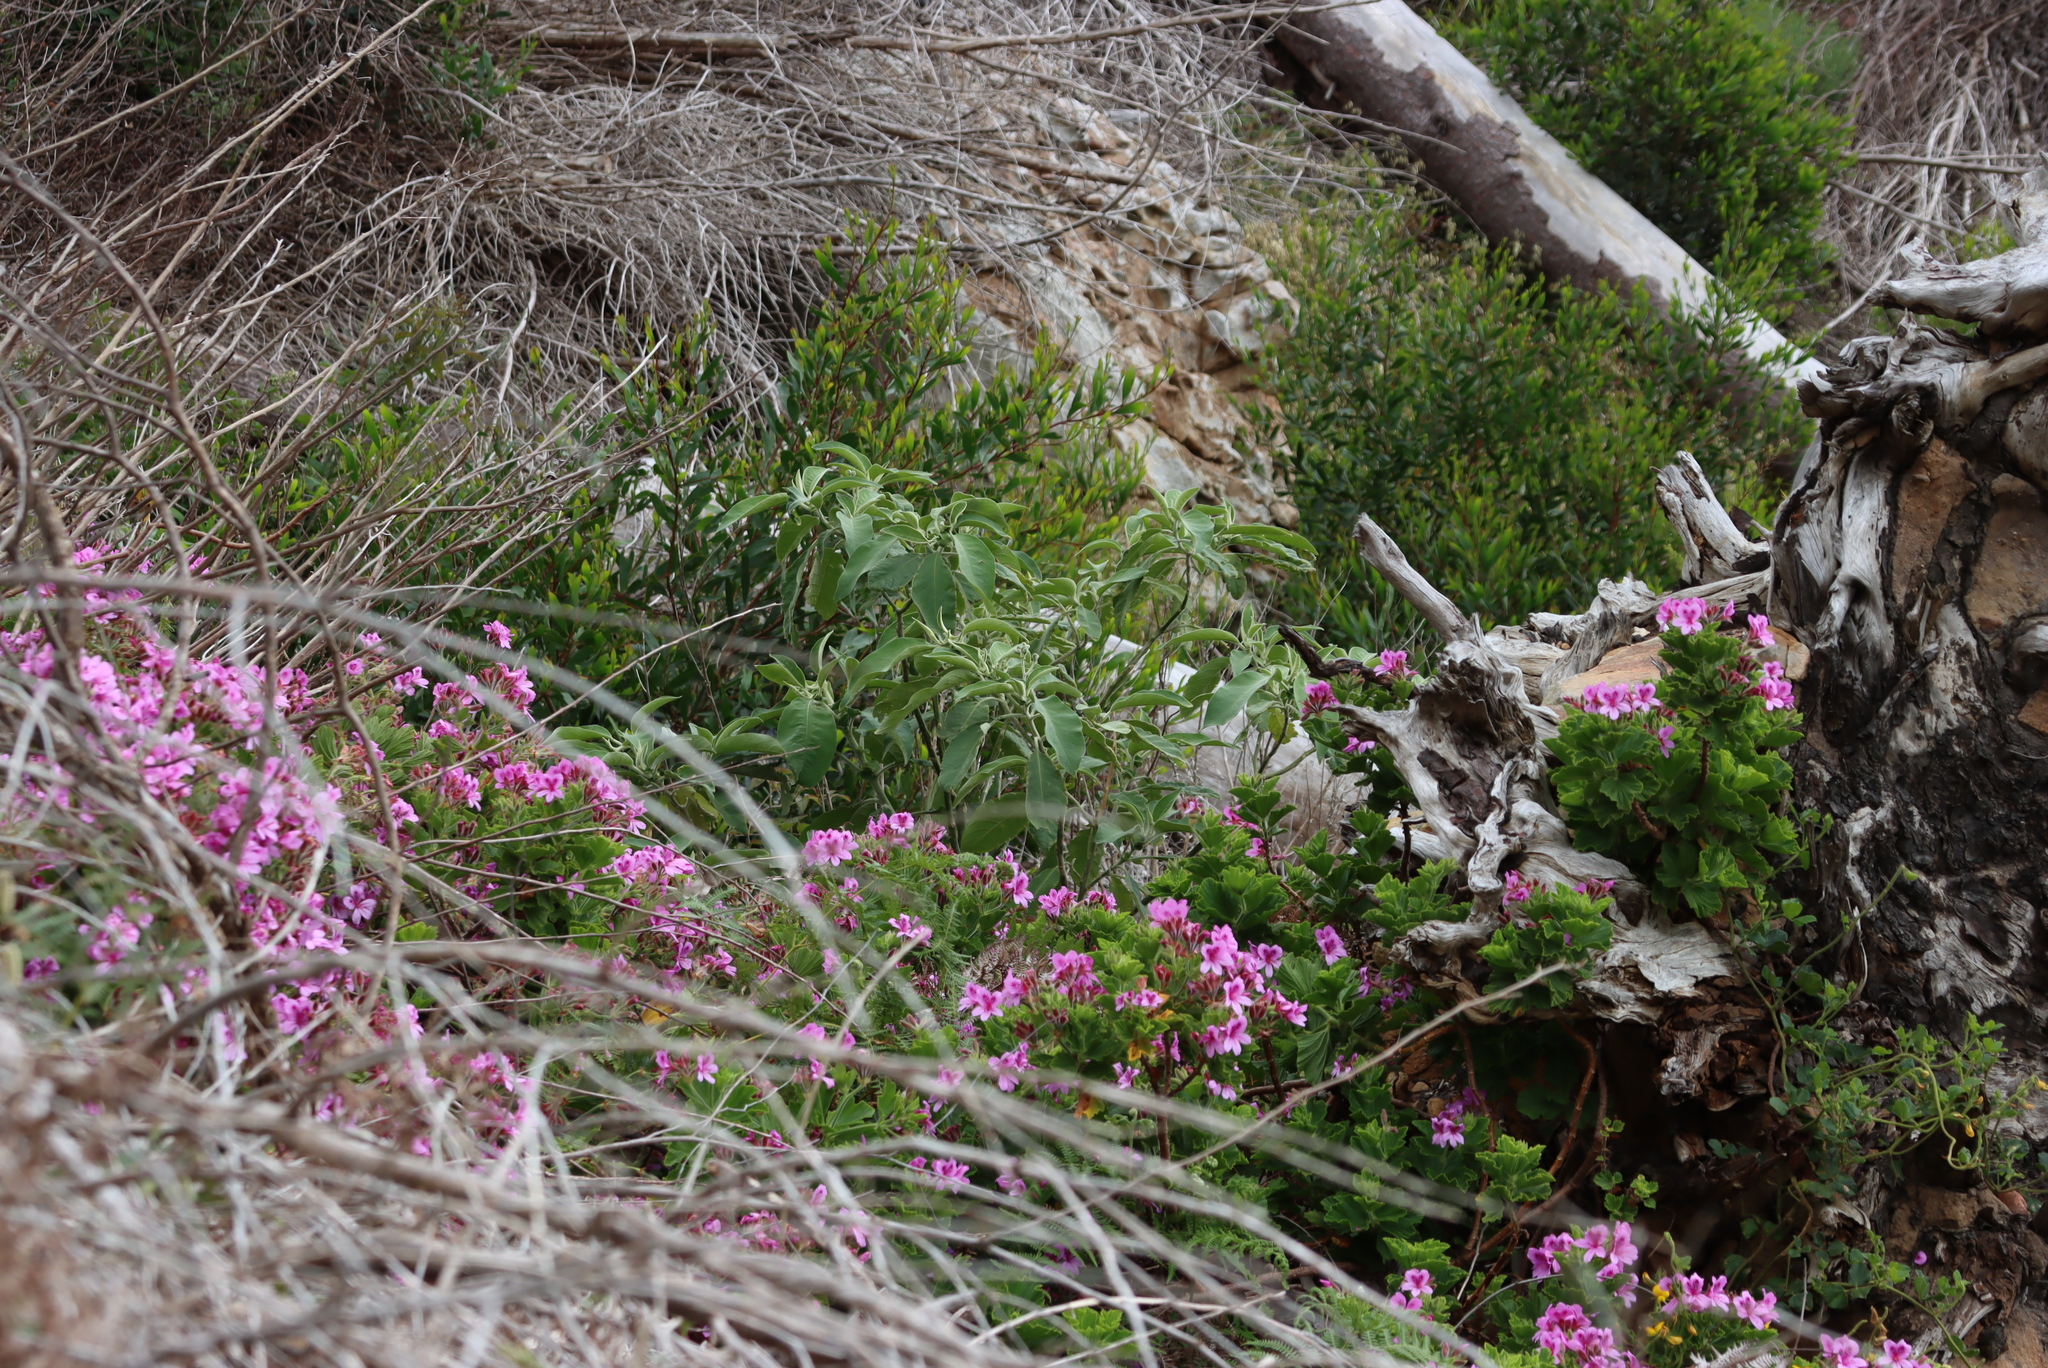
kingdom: Plantae
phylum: Tracheophyta
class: Magnoliopsida
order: Solanales
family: Solanaceae
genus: Solanum
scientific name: Solanum mauritianum
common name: Earleaf nightshade
